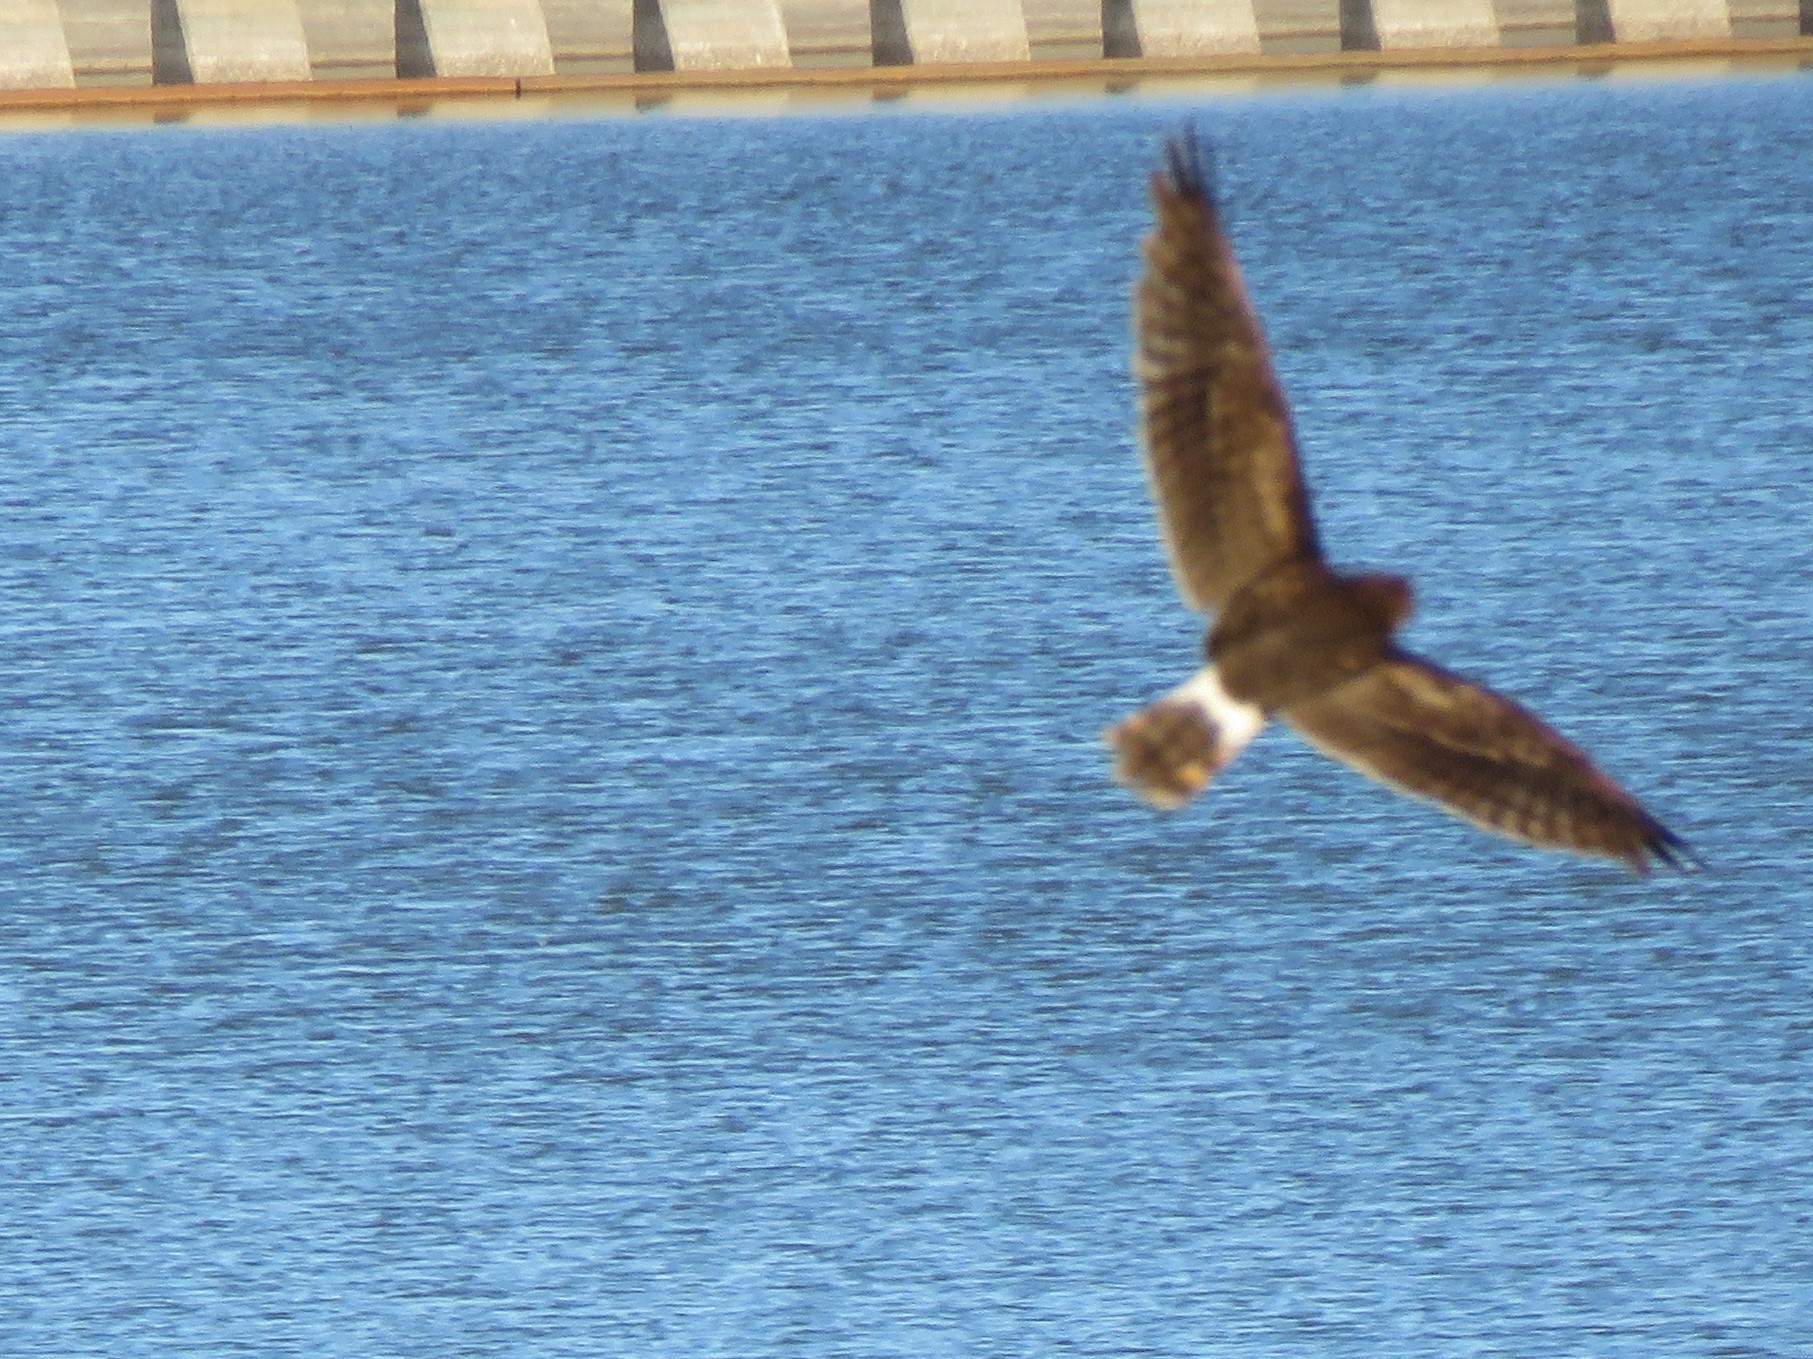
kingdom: Animalia
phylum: Chordata
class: Aves
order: Accipitriformes
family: Accipitridae
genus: Circus
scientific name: Circus cyaneus
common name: Hen harrier
